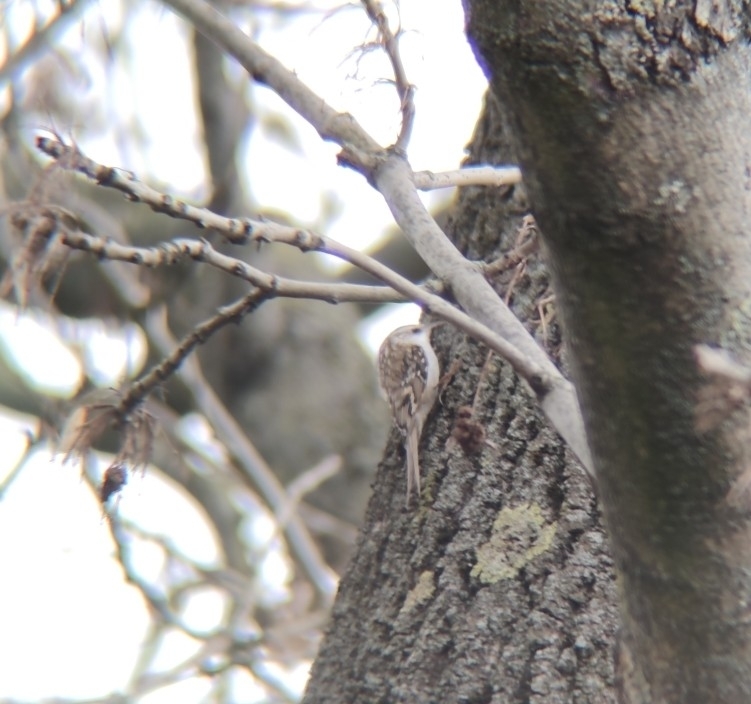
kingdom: Animalia
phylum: Chordata
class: Aves
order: Passeriformes
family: Certhiidae
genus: Certhia
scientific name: Certhia familiaris
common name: Eurasian treecreeper
